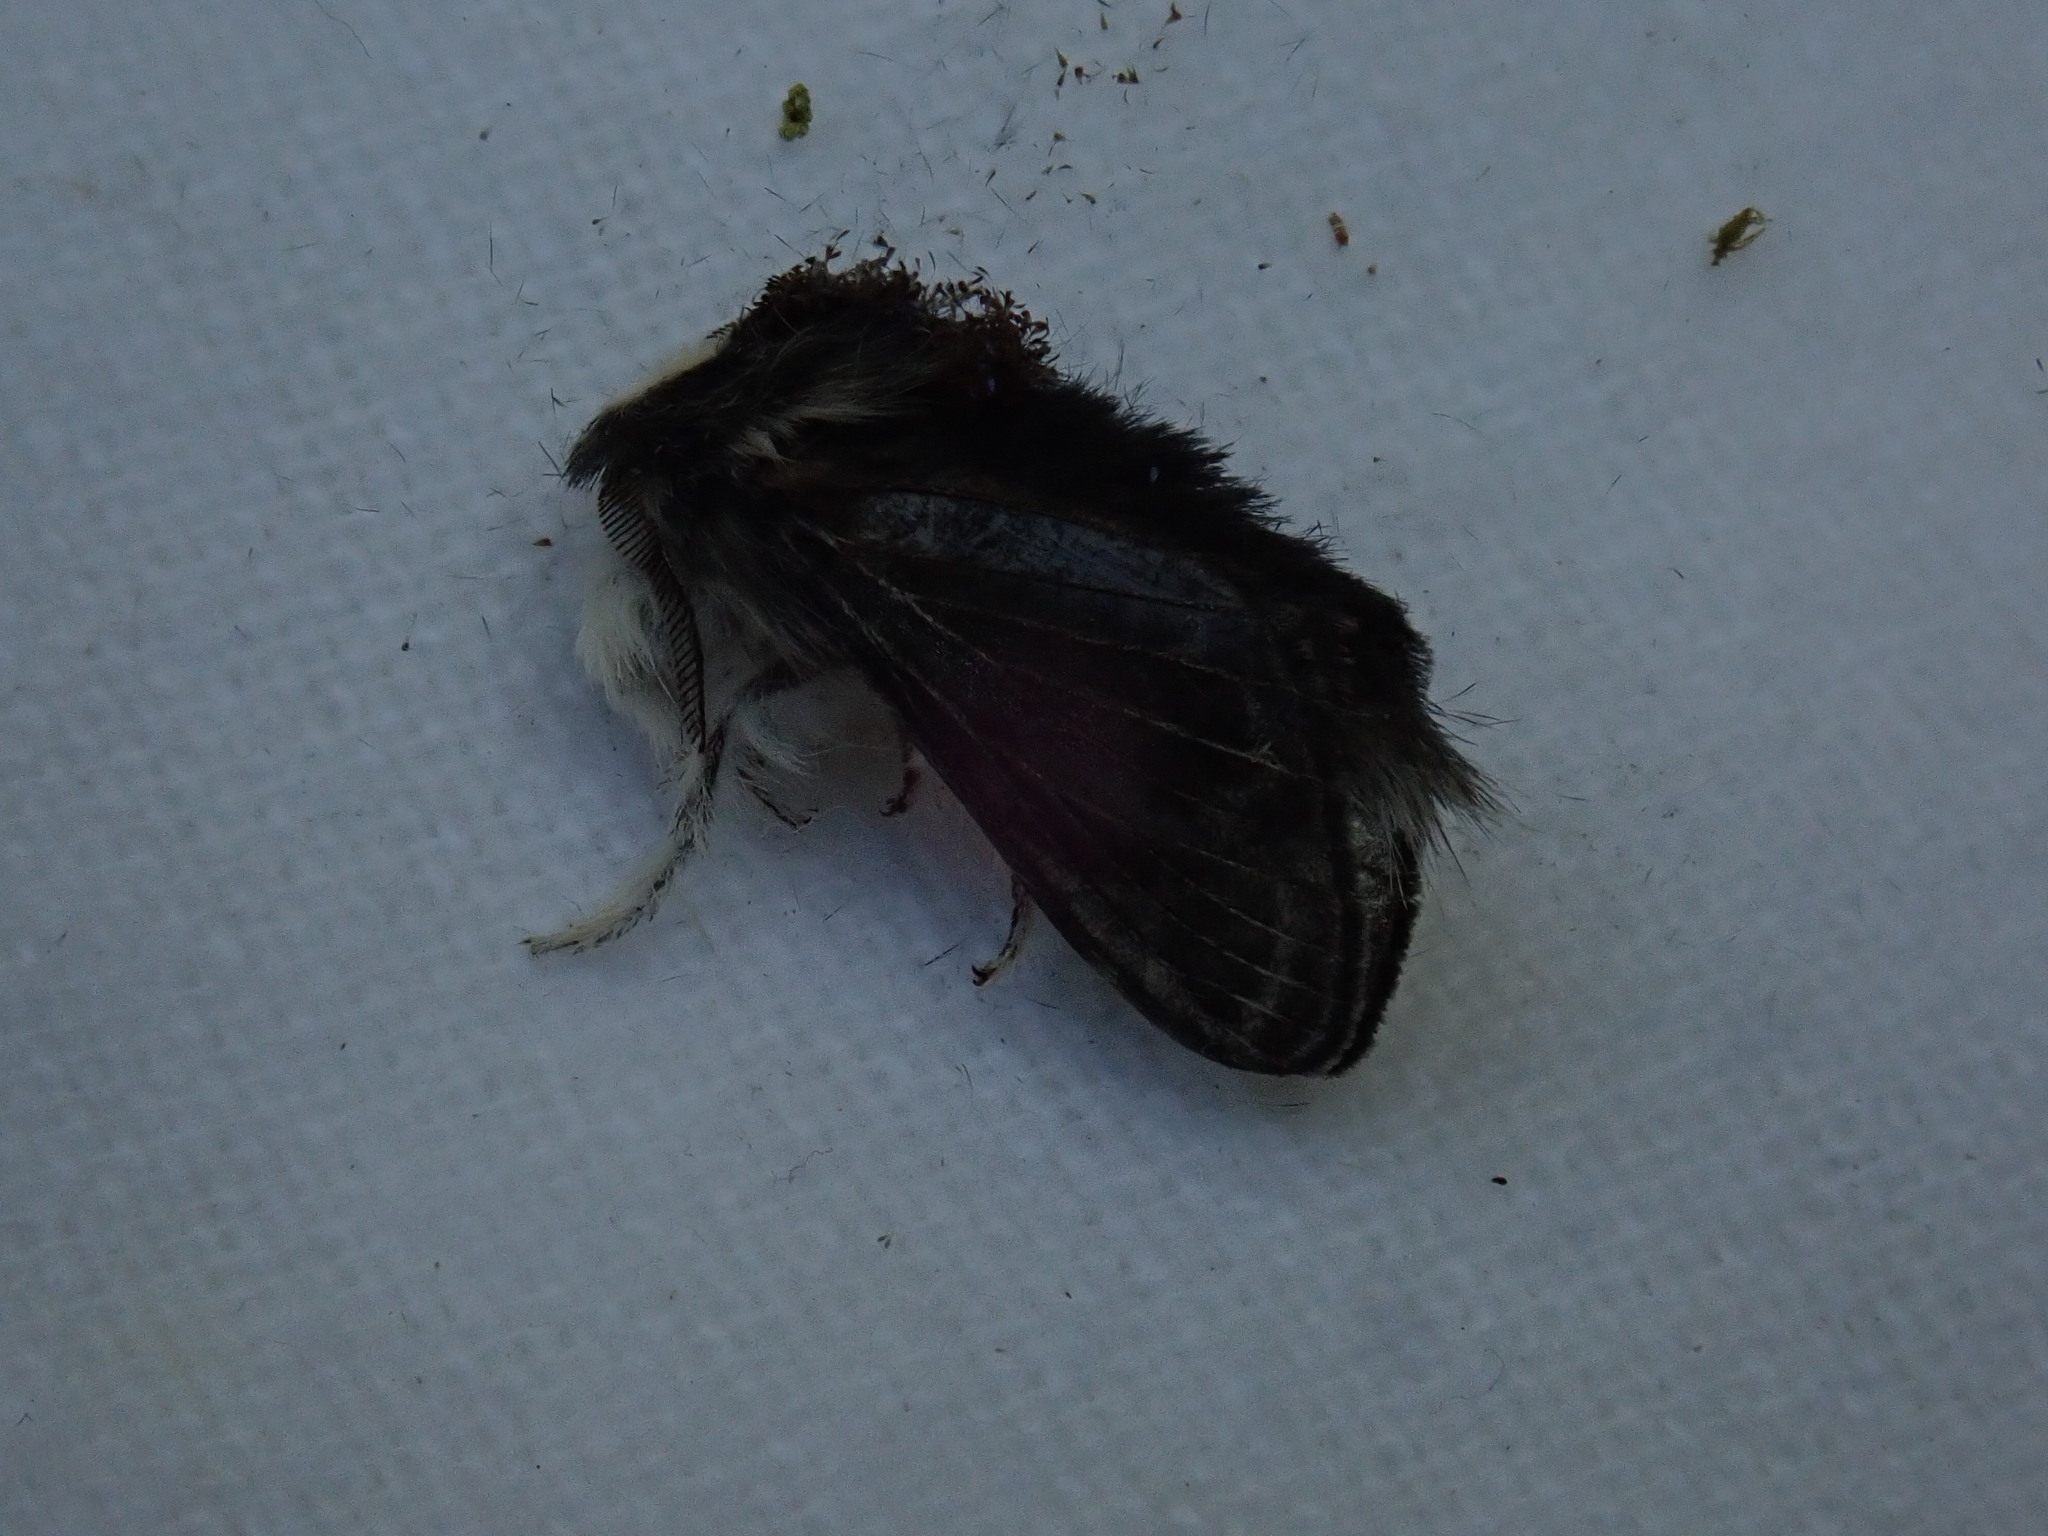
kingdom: Animalia
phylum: Arthropoda
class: Insecta
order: Lepidoptera
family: Lasiocampidae
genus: Tolype
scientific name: Tolype laricis
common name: Larch tolype moth
